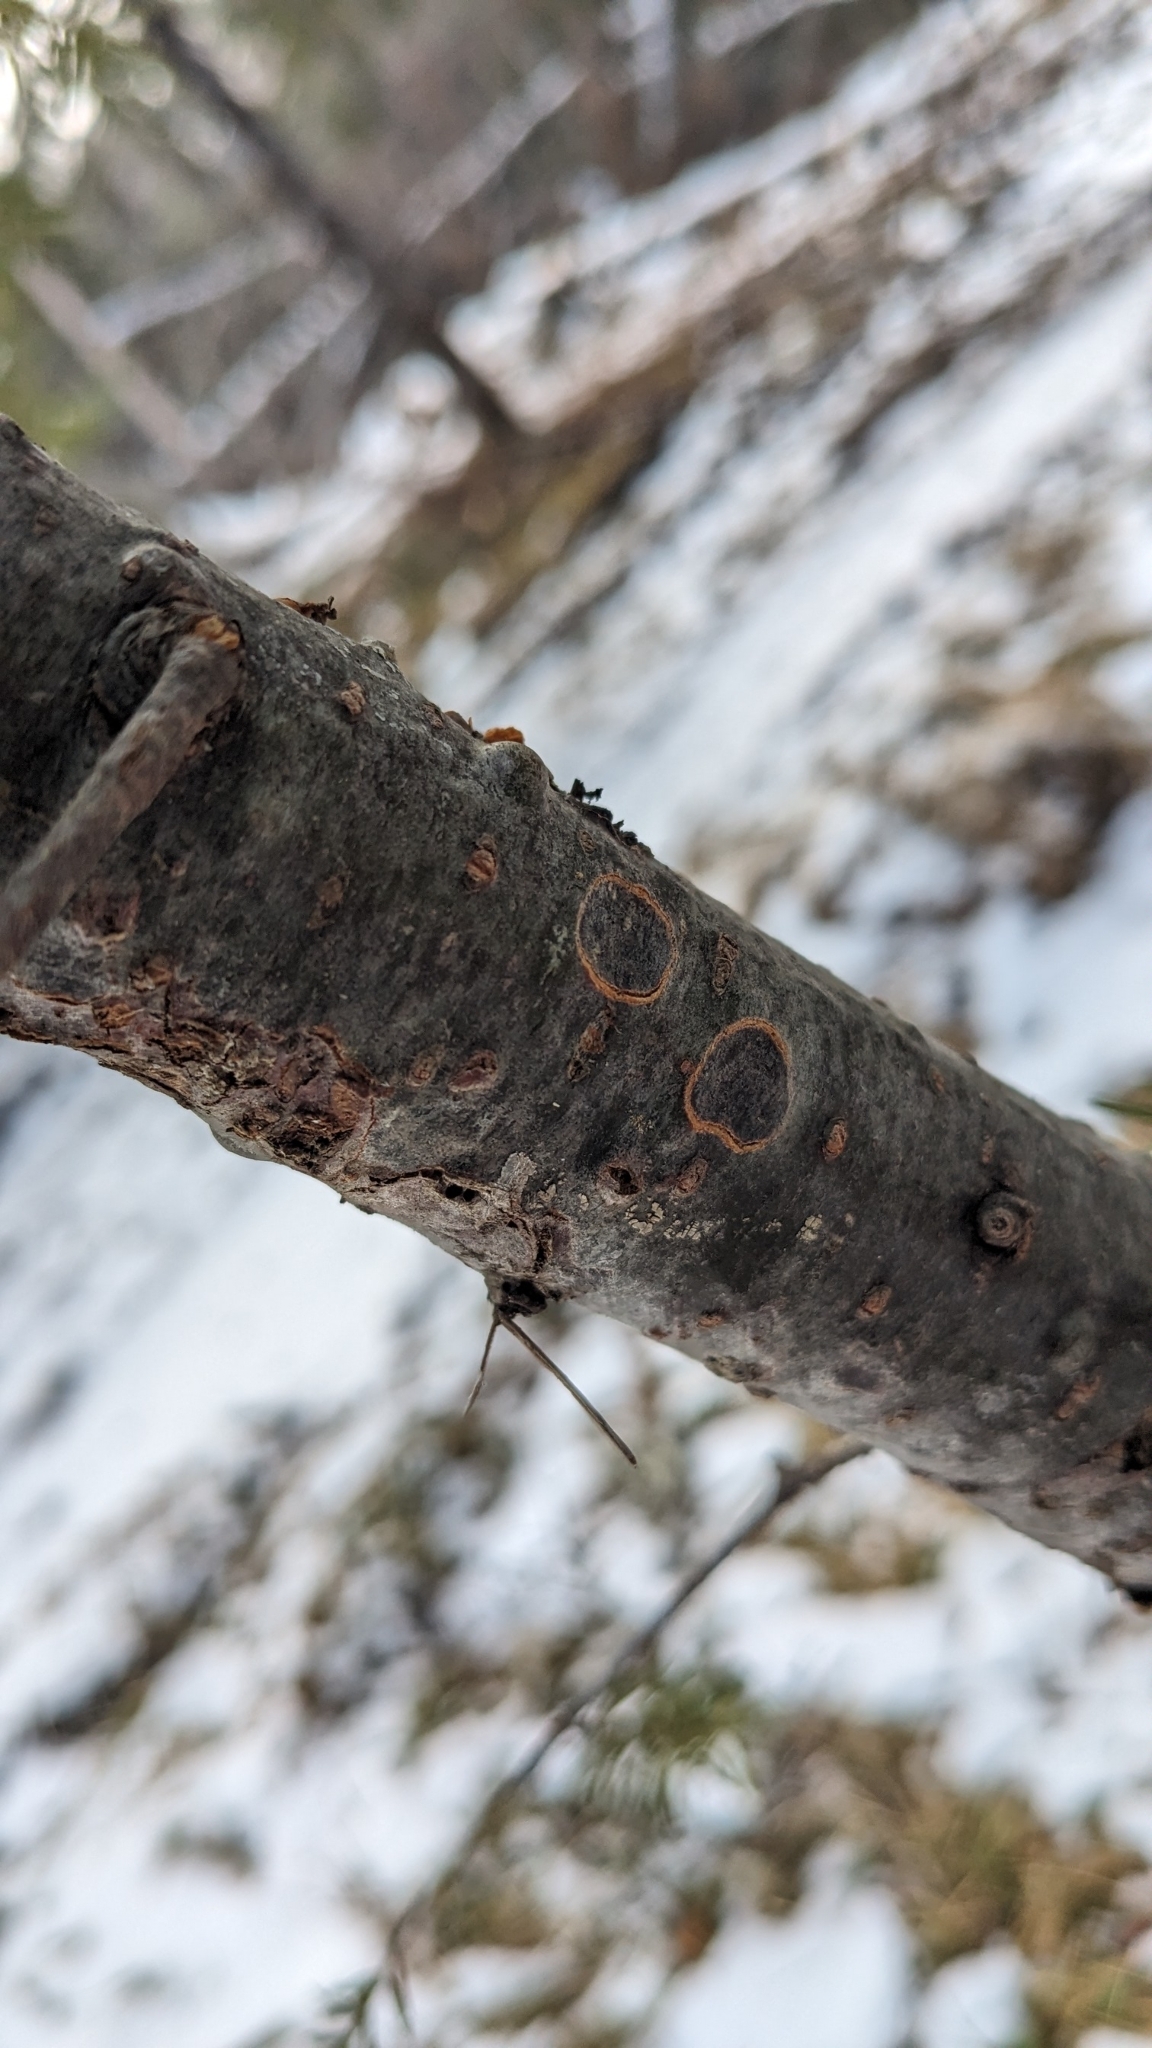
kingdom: Plantae
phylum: Tracheophyta
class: Pinopsida
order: Pinales
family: Pinaceae
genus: Abies
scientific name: Abies balsamea
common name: Balsam fir
